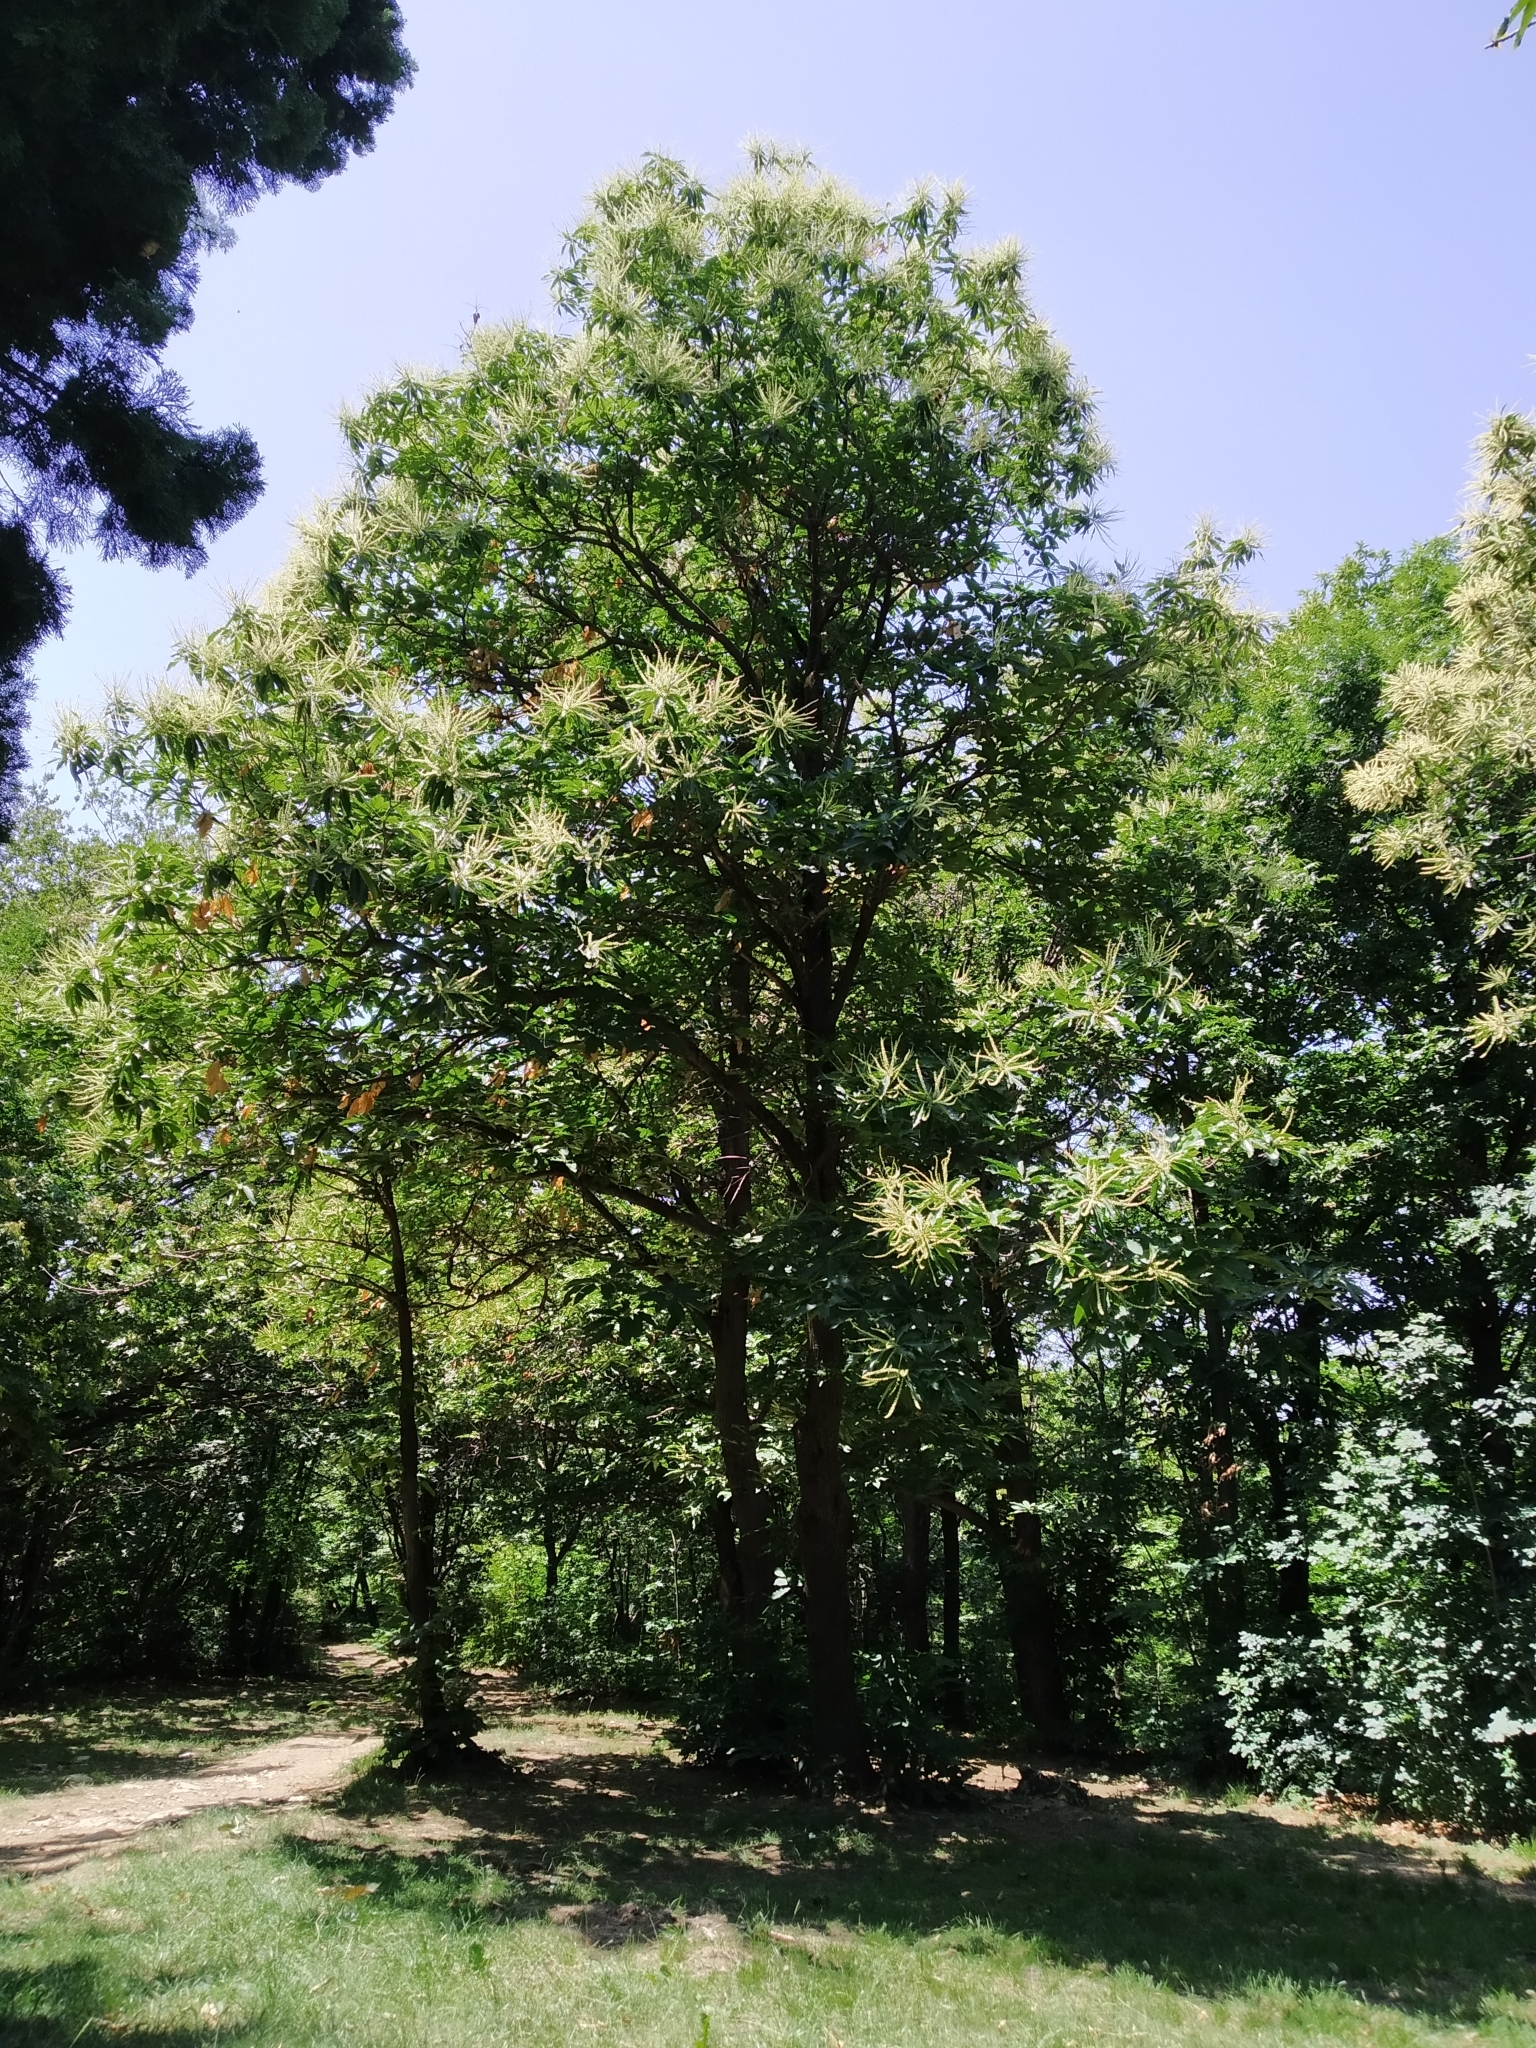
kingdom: Plantae
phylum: Tracheophyta
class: Magnoliopsida
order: Fagales
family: Fagaceae
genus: Castanea
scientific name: Castanea sativa
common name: Sweet chestnut
